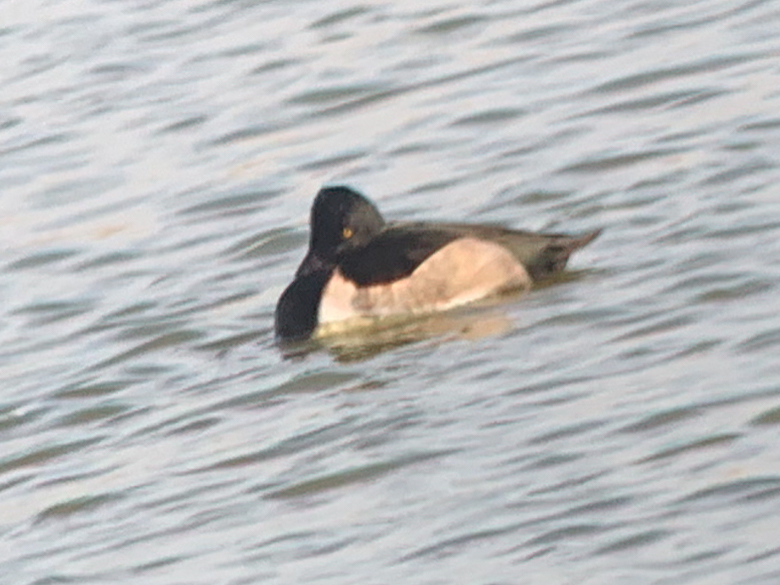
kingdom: Animalia
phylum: Chordata
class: Aves
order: Anseriformes
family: Anatidae
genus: Aythya
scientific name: Aythya collaris
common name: Ring-necked duck
